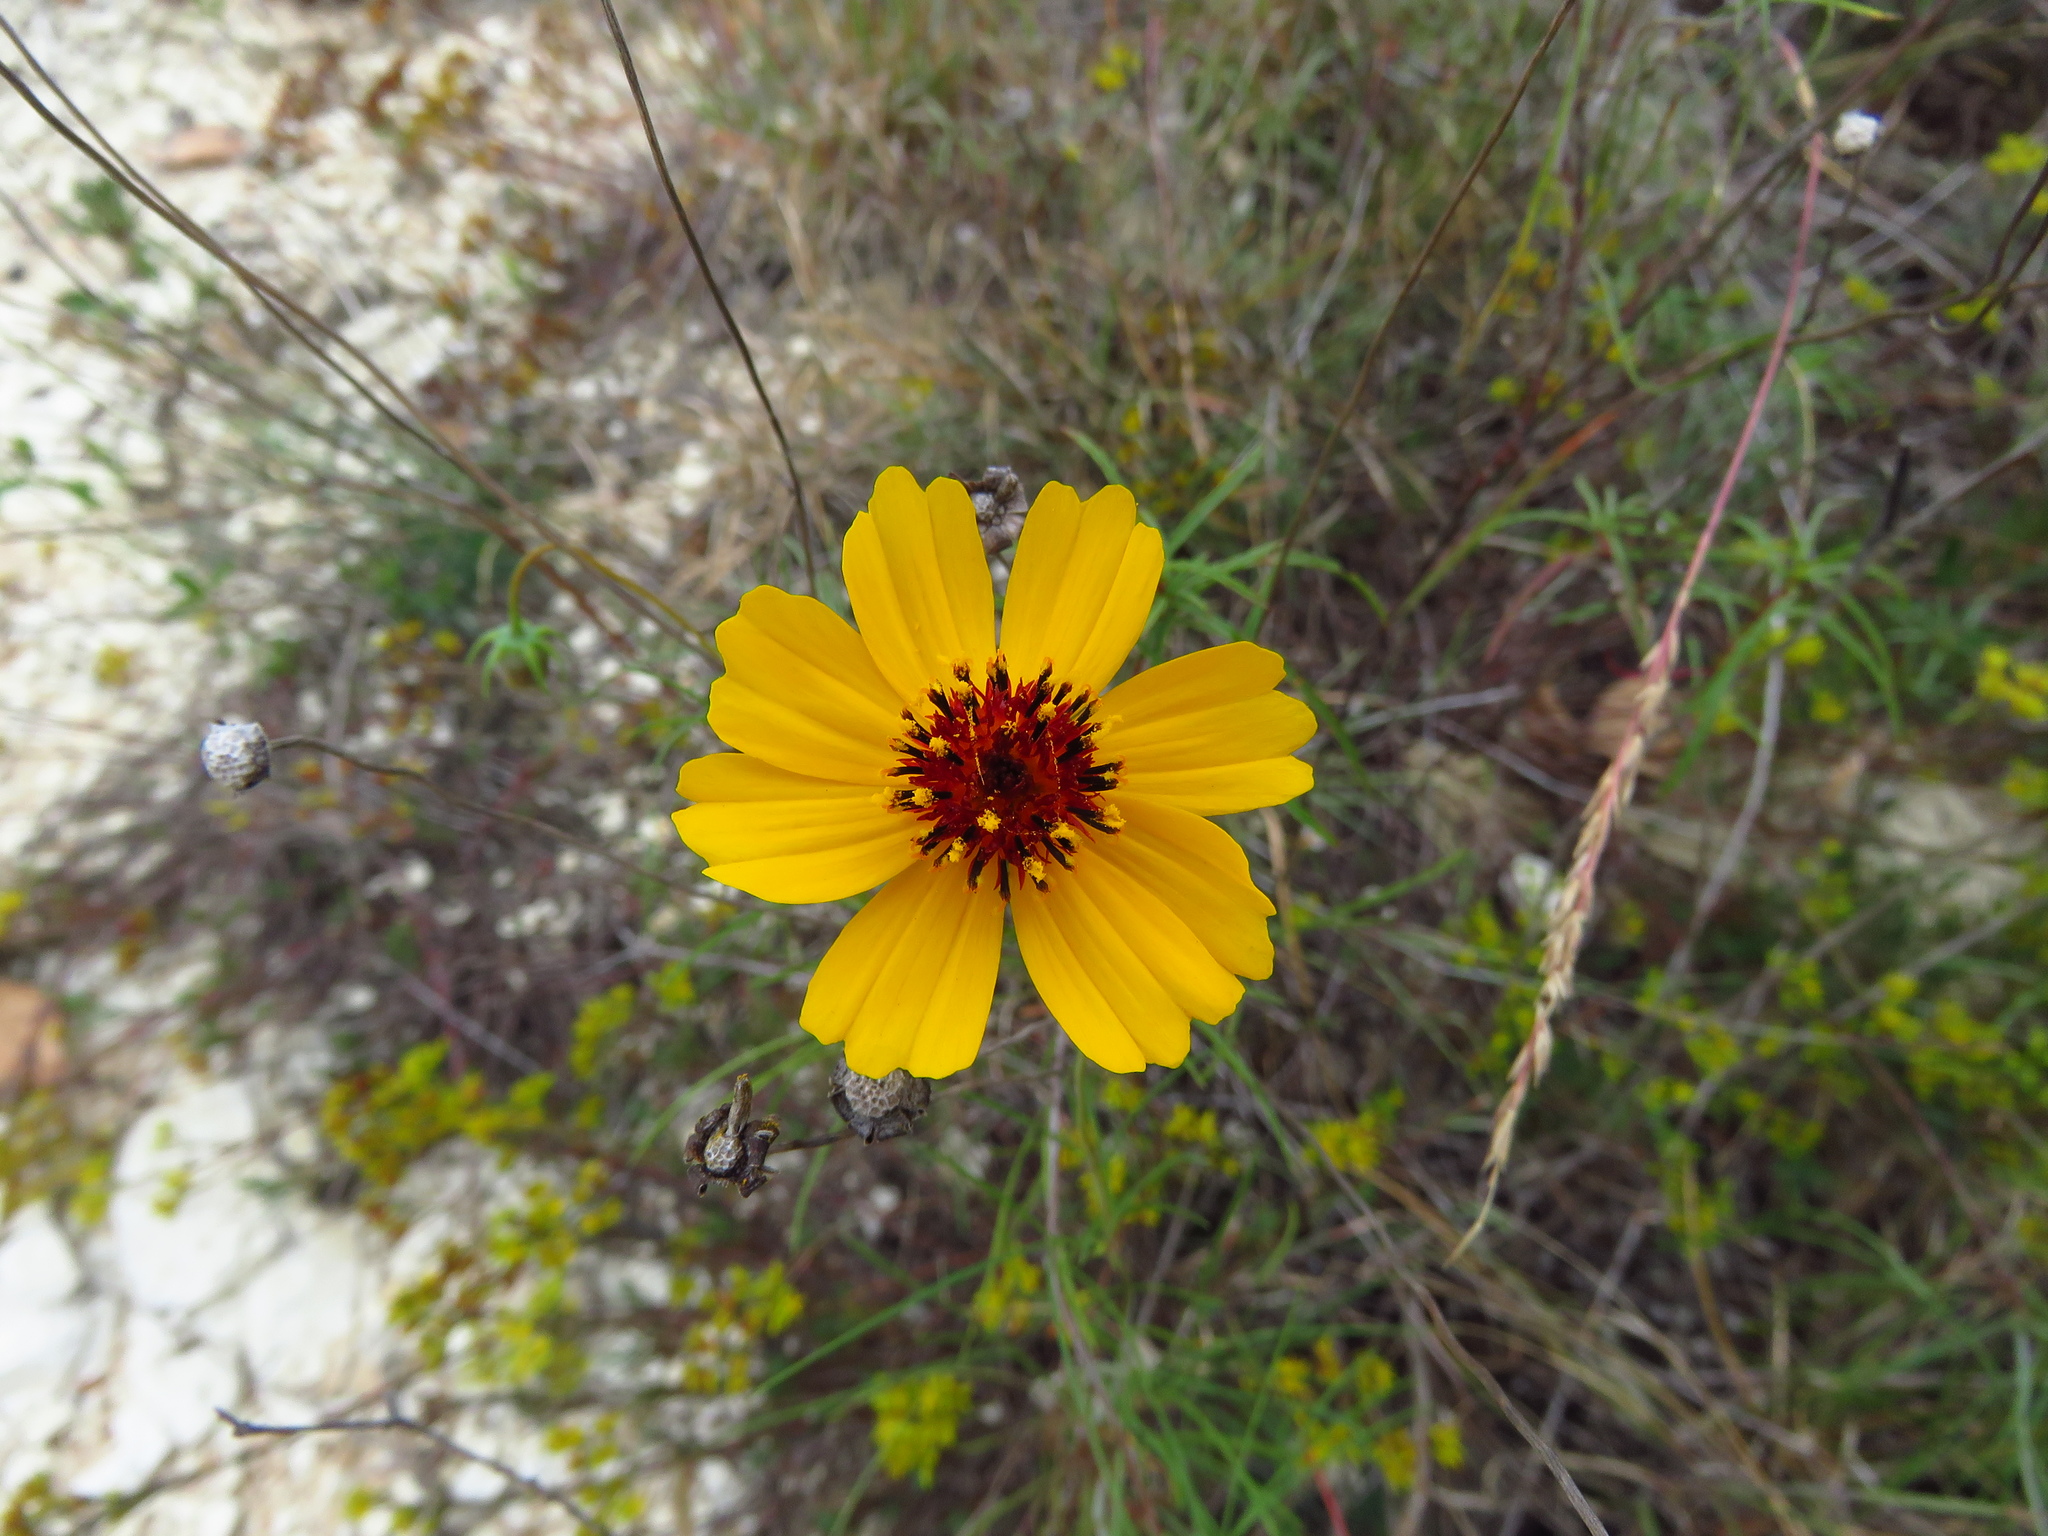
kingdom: Plantae
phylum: Tracheophyta
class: Magnoliopsida
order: Asterales
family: Asteraceae
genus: Thelesperma
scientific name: Thelesperma filifolium
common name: Stiff greenthread
